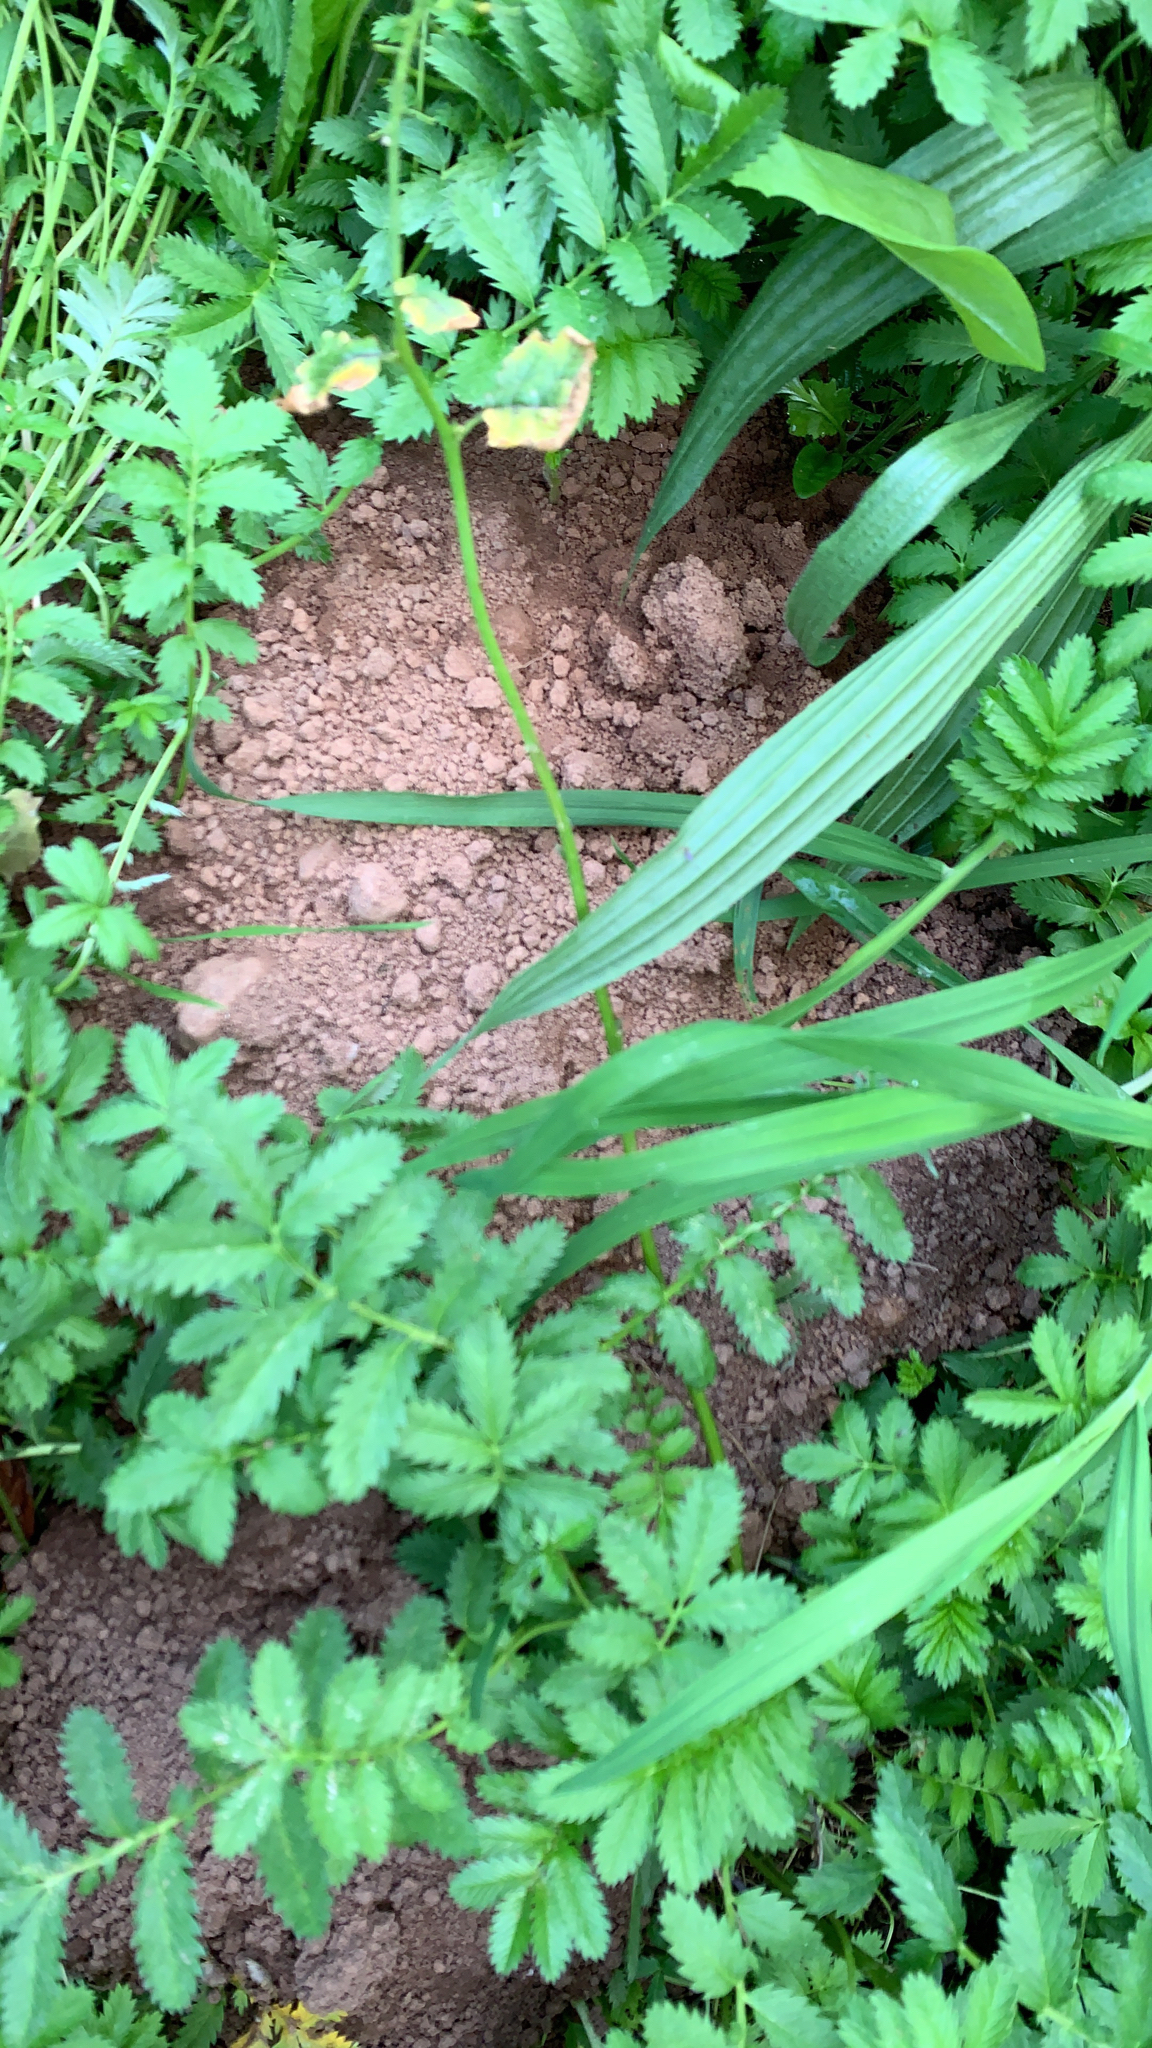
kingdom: Animalia
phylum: Chordata
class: Mammalia
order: Soricomorpha
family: Talpidae
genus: Talpa
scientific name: Talpa europaea
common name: European mole
